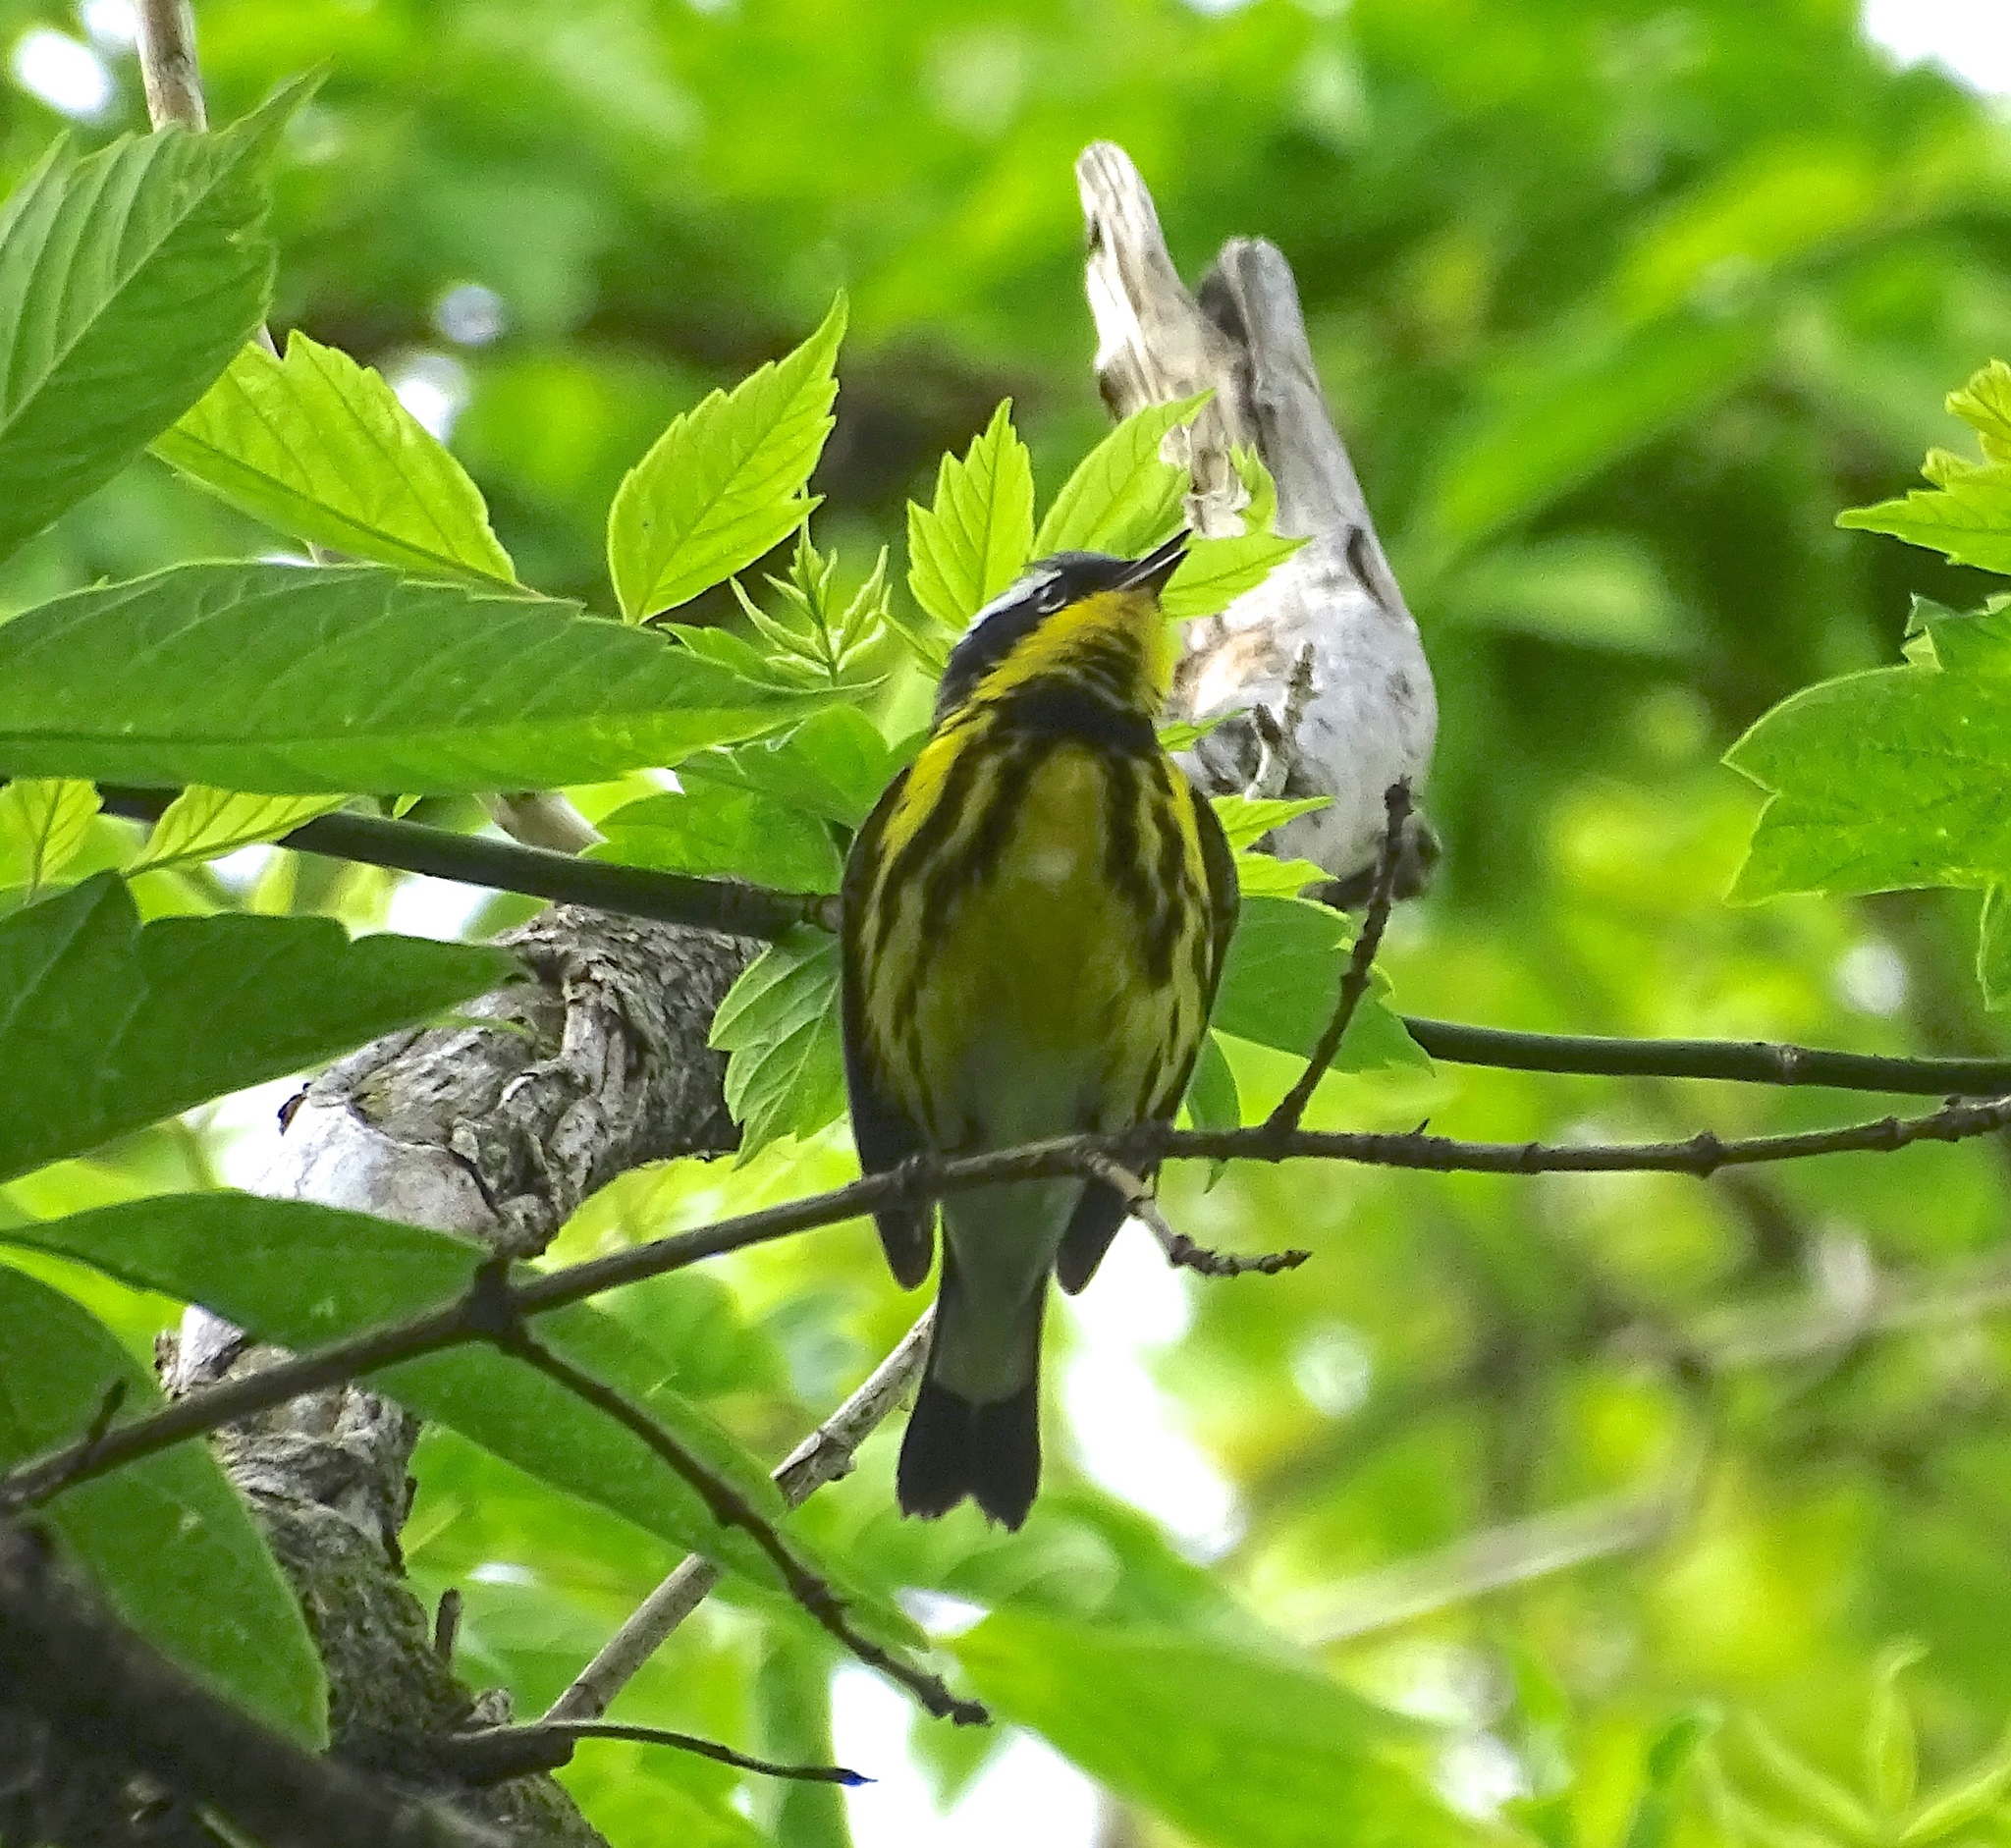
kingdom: Animalia
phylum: Chordata
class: Aves
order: Passeriformes
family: Parulidae
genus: Setophaga
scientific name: Setophaga magnolia
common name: Magnolia warbler
